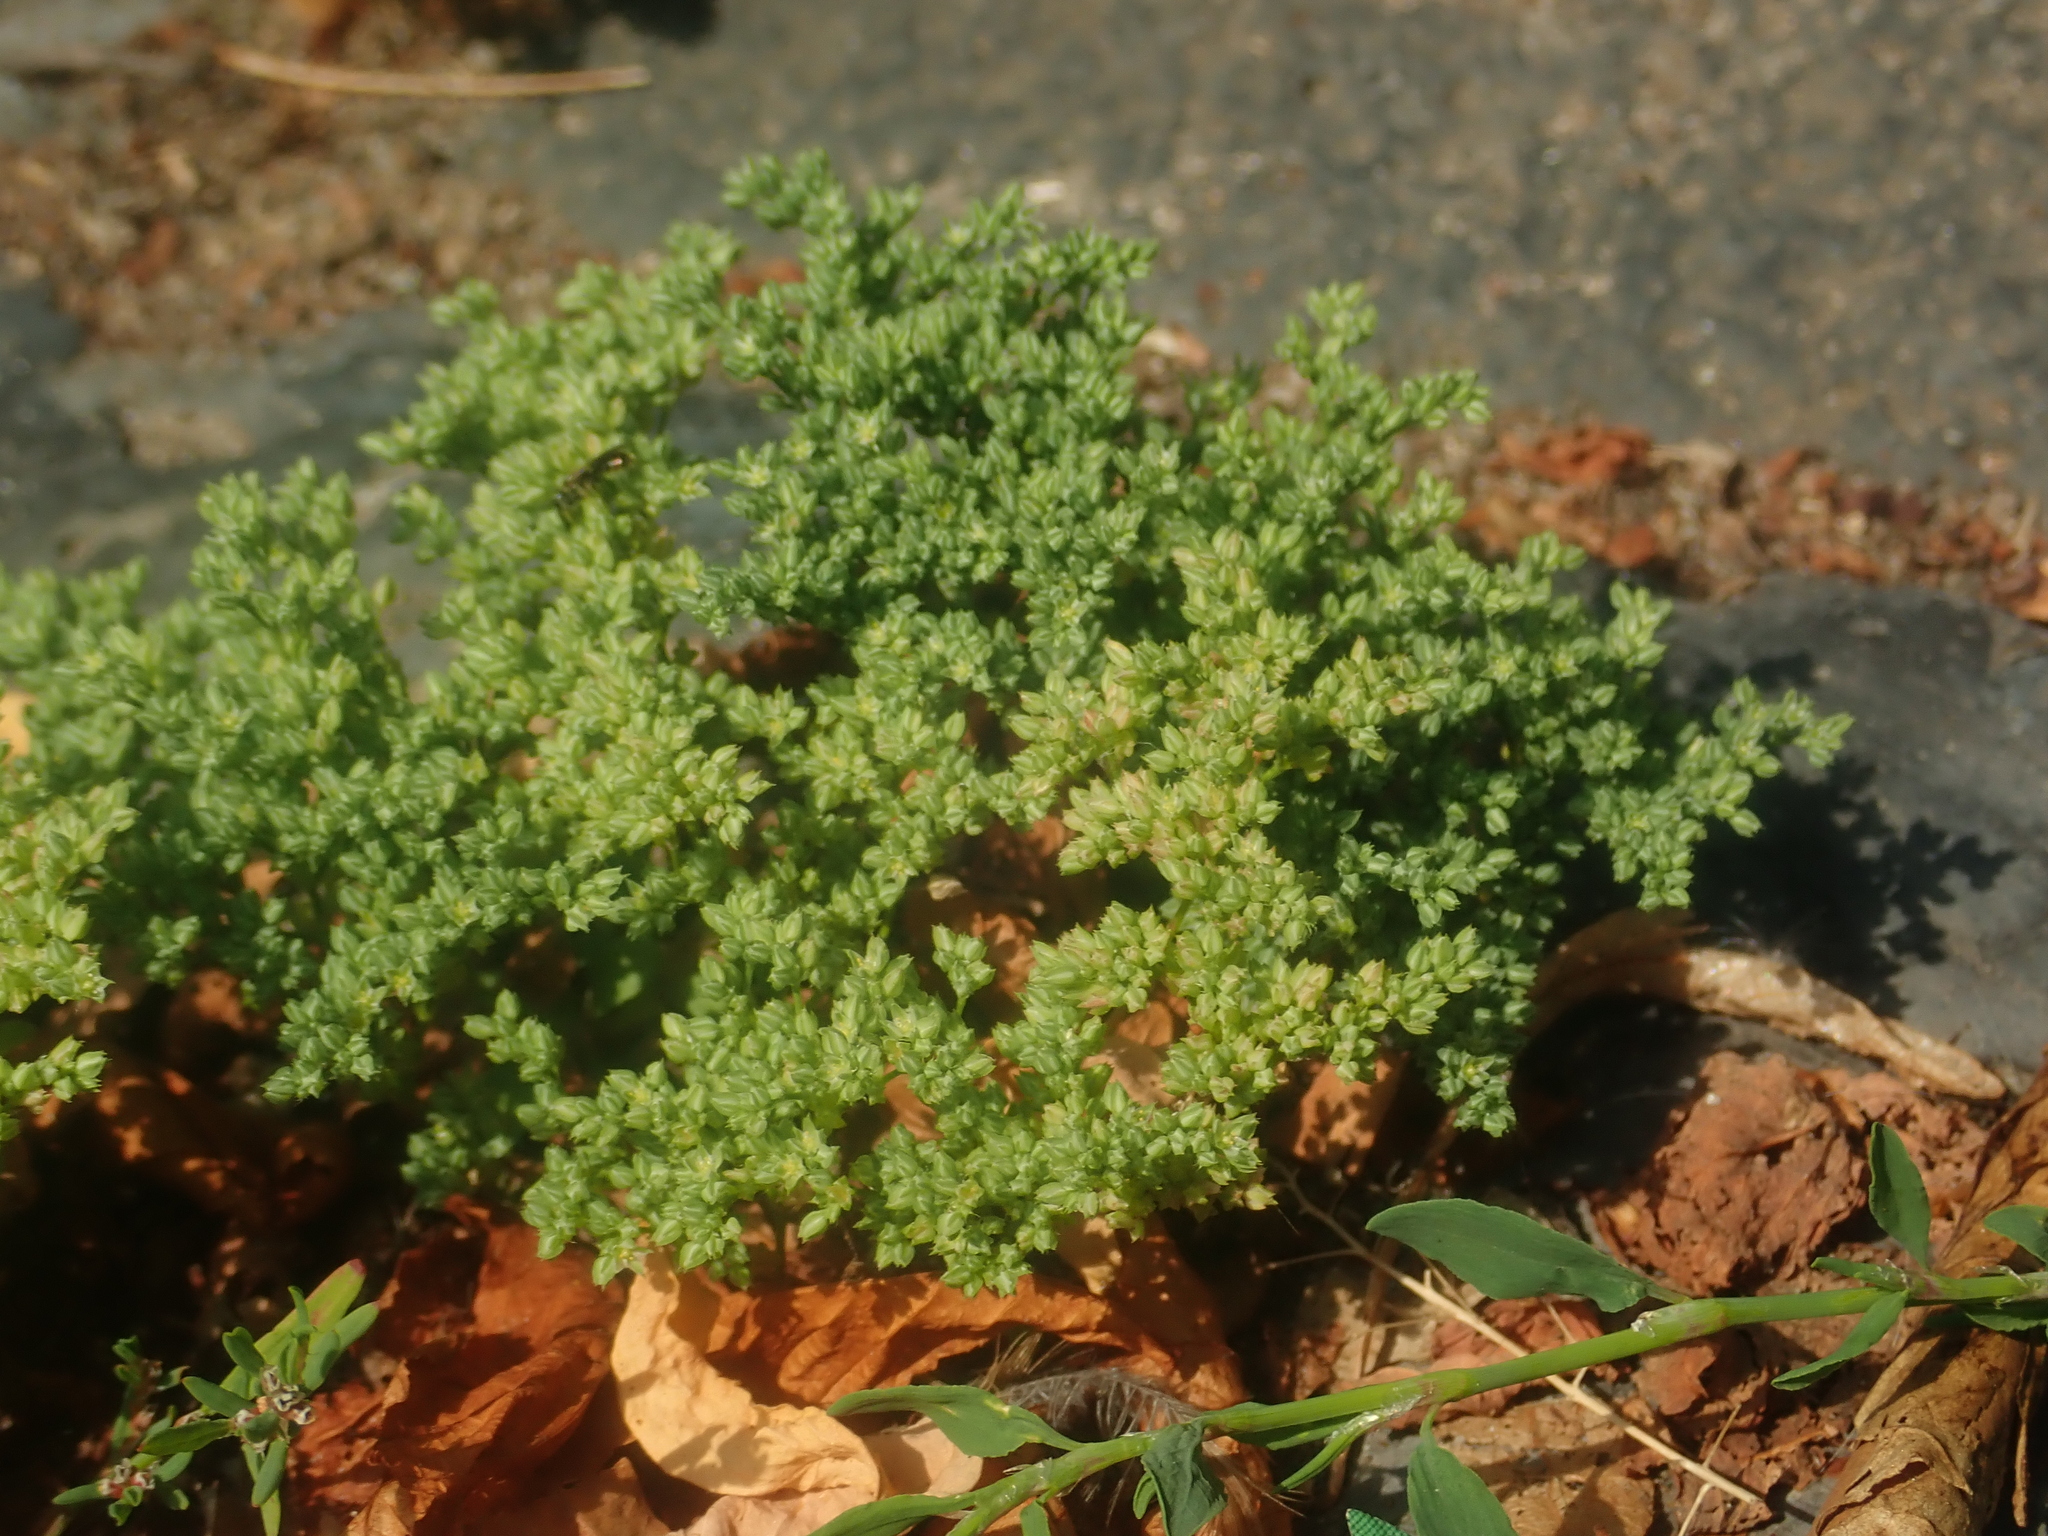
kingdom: Plantae
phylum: Tracheophyta
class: Magnoliopsida
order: Caryophyllales
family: Caryophyllaceae
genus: Polycarpon
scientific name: Polycarpon tetraphyllum
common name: Four-leaved all-seed
